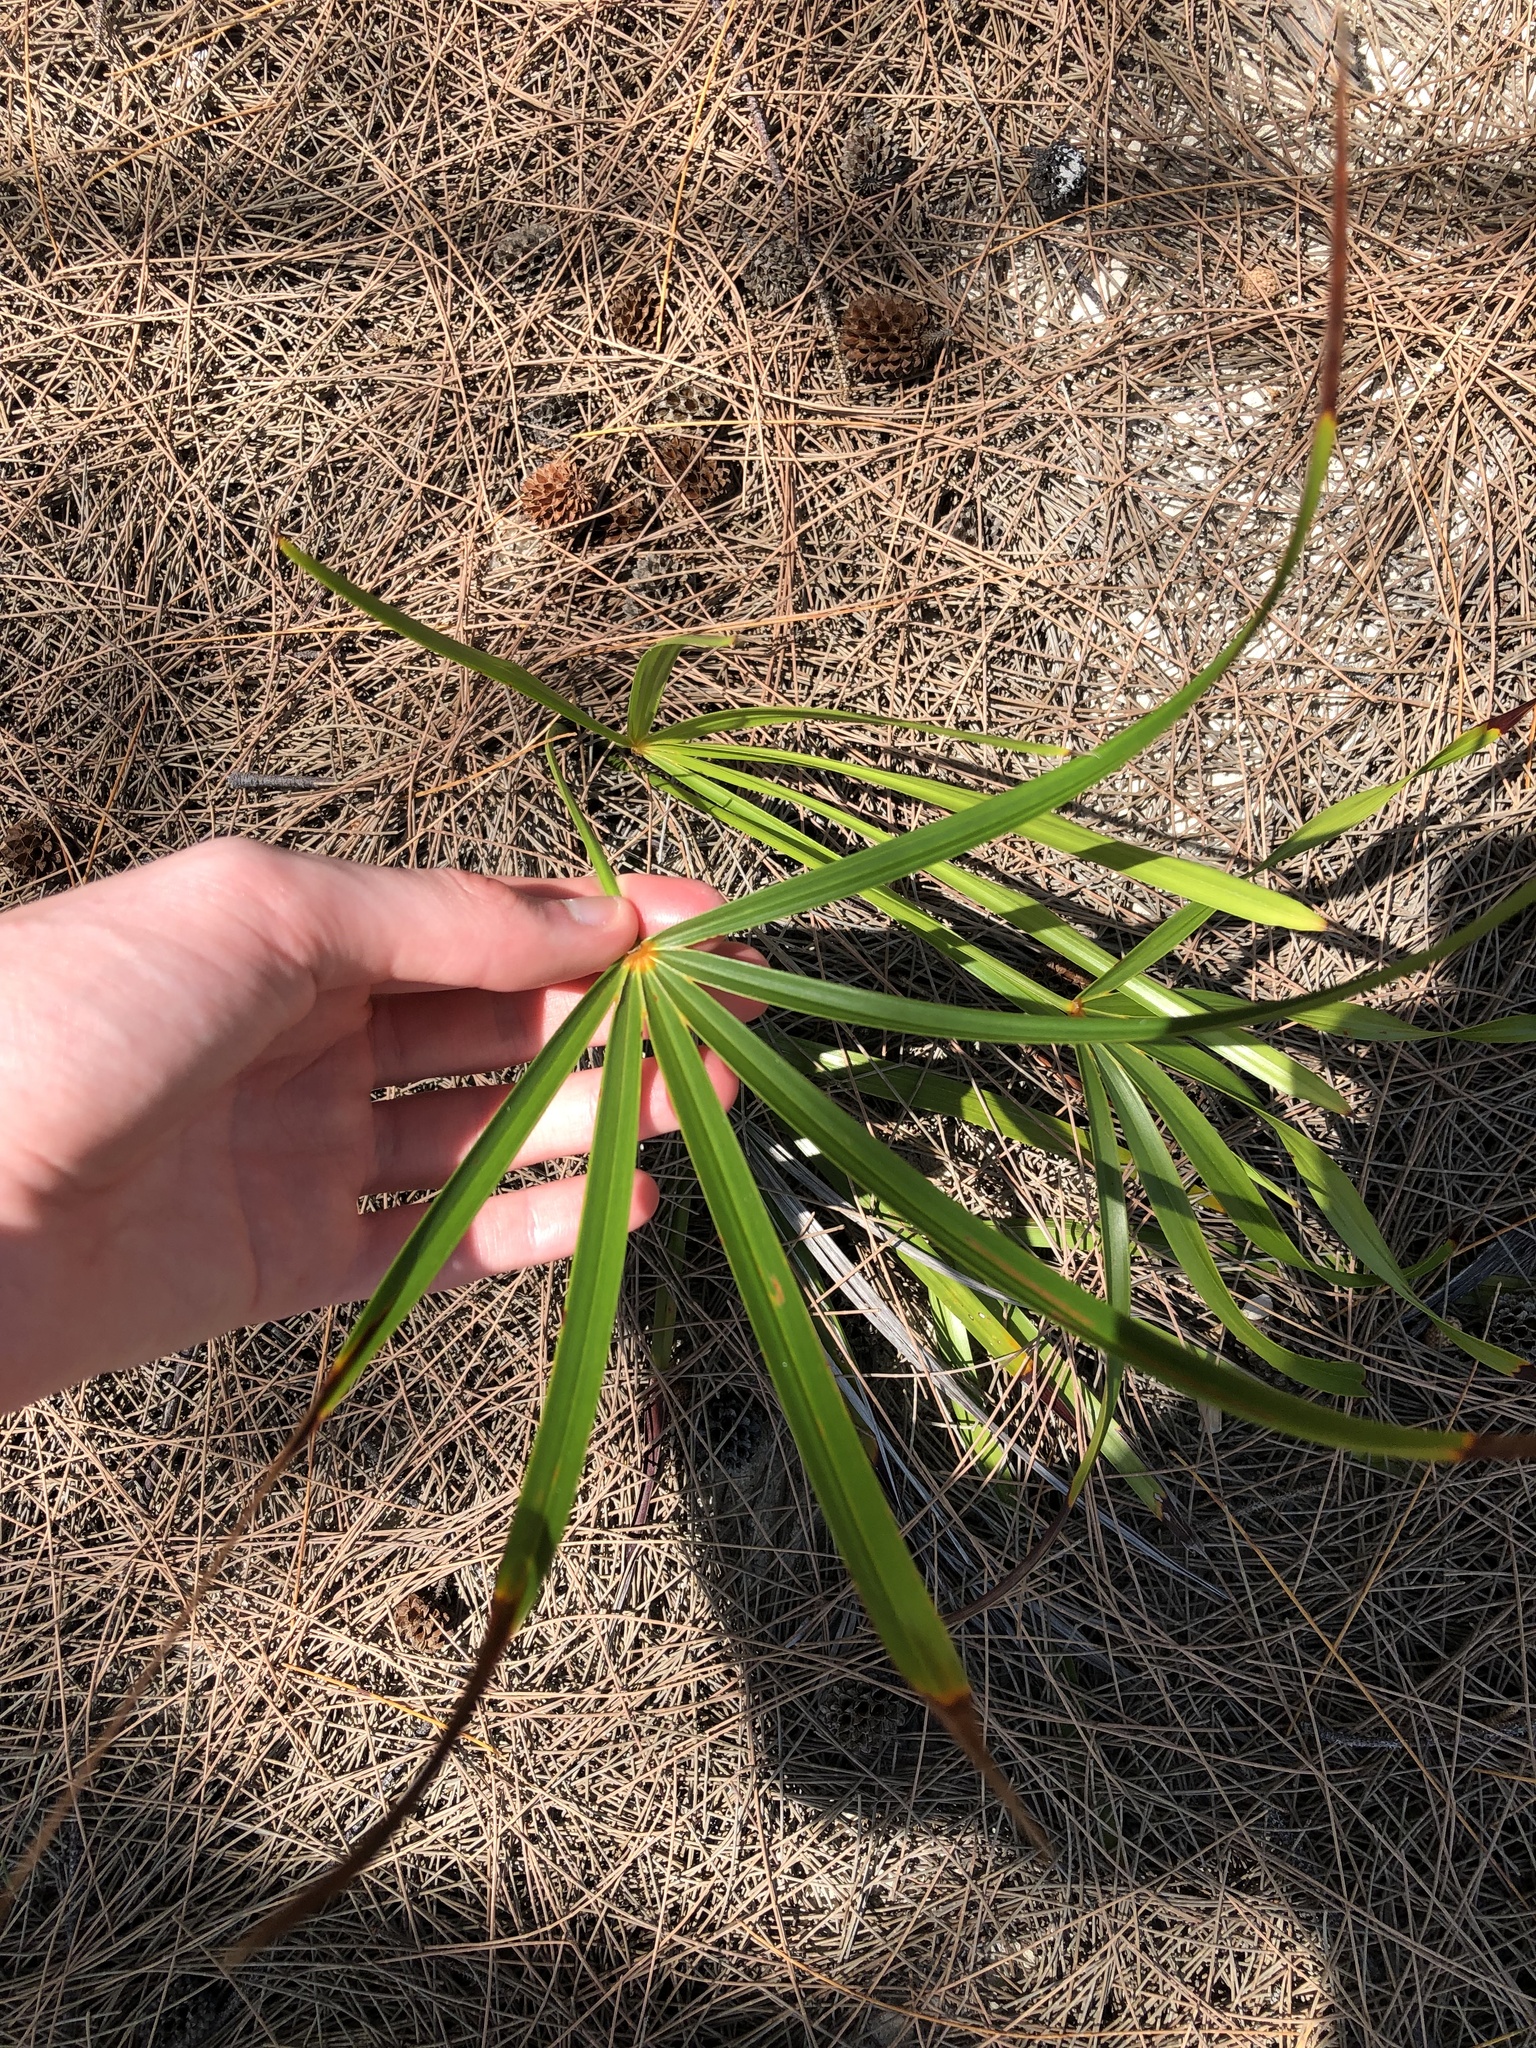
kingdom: Plantae
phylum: Tracheophyta
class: Liliopsida
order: Arecales
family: Arecaceae
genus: Coccothrinax
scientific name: Coccothrinax argentata
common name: Florida silver palm
